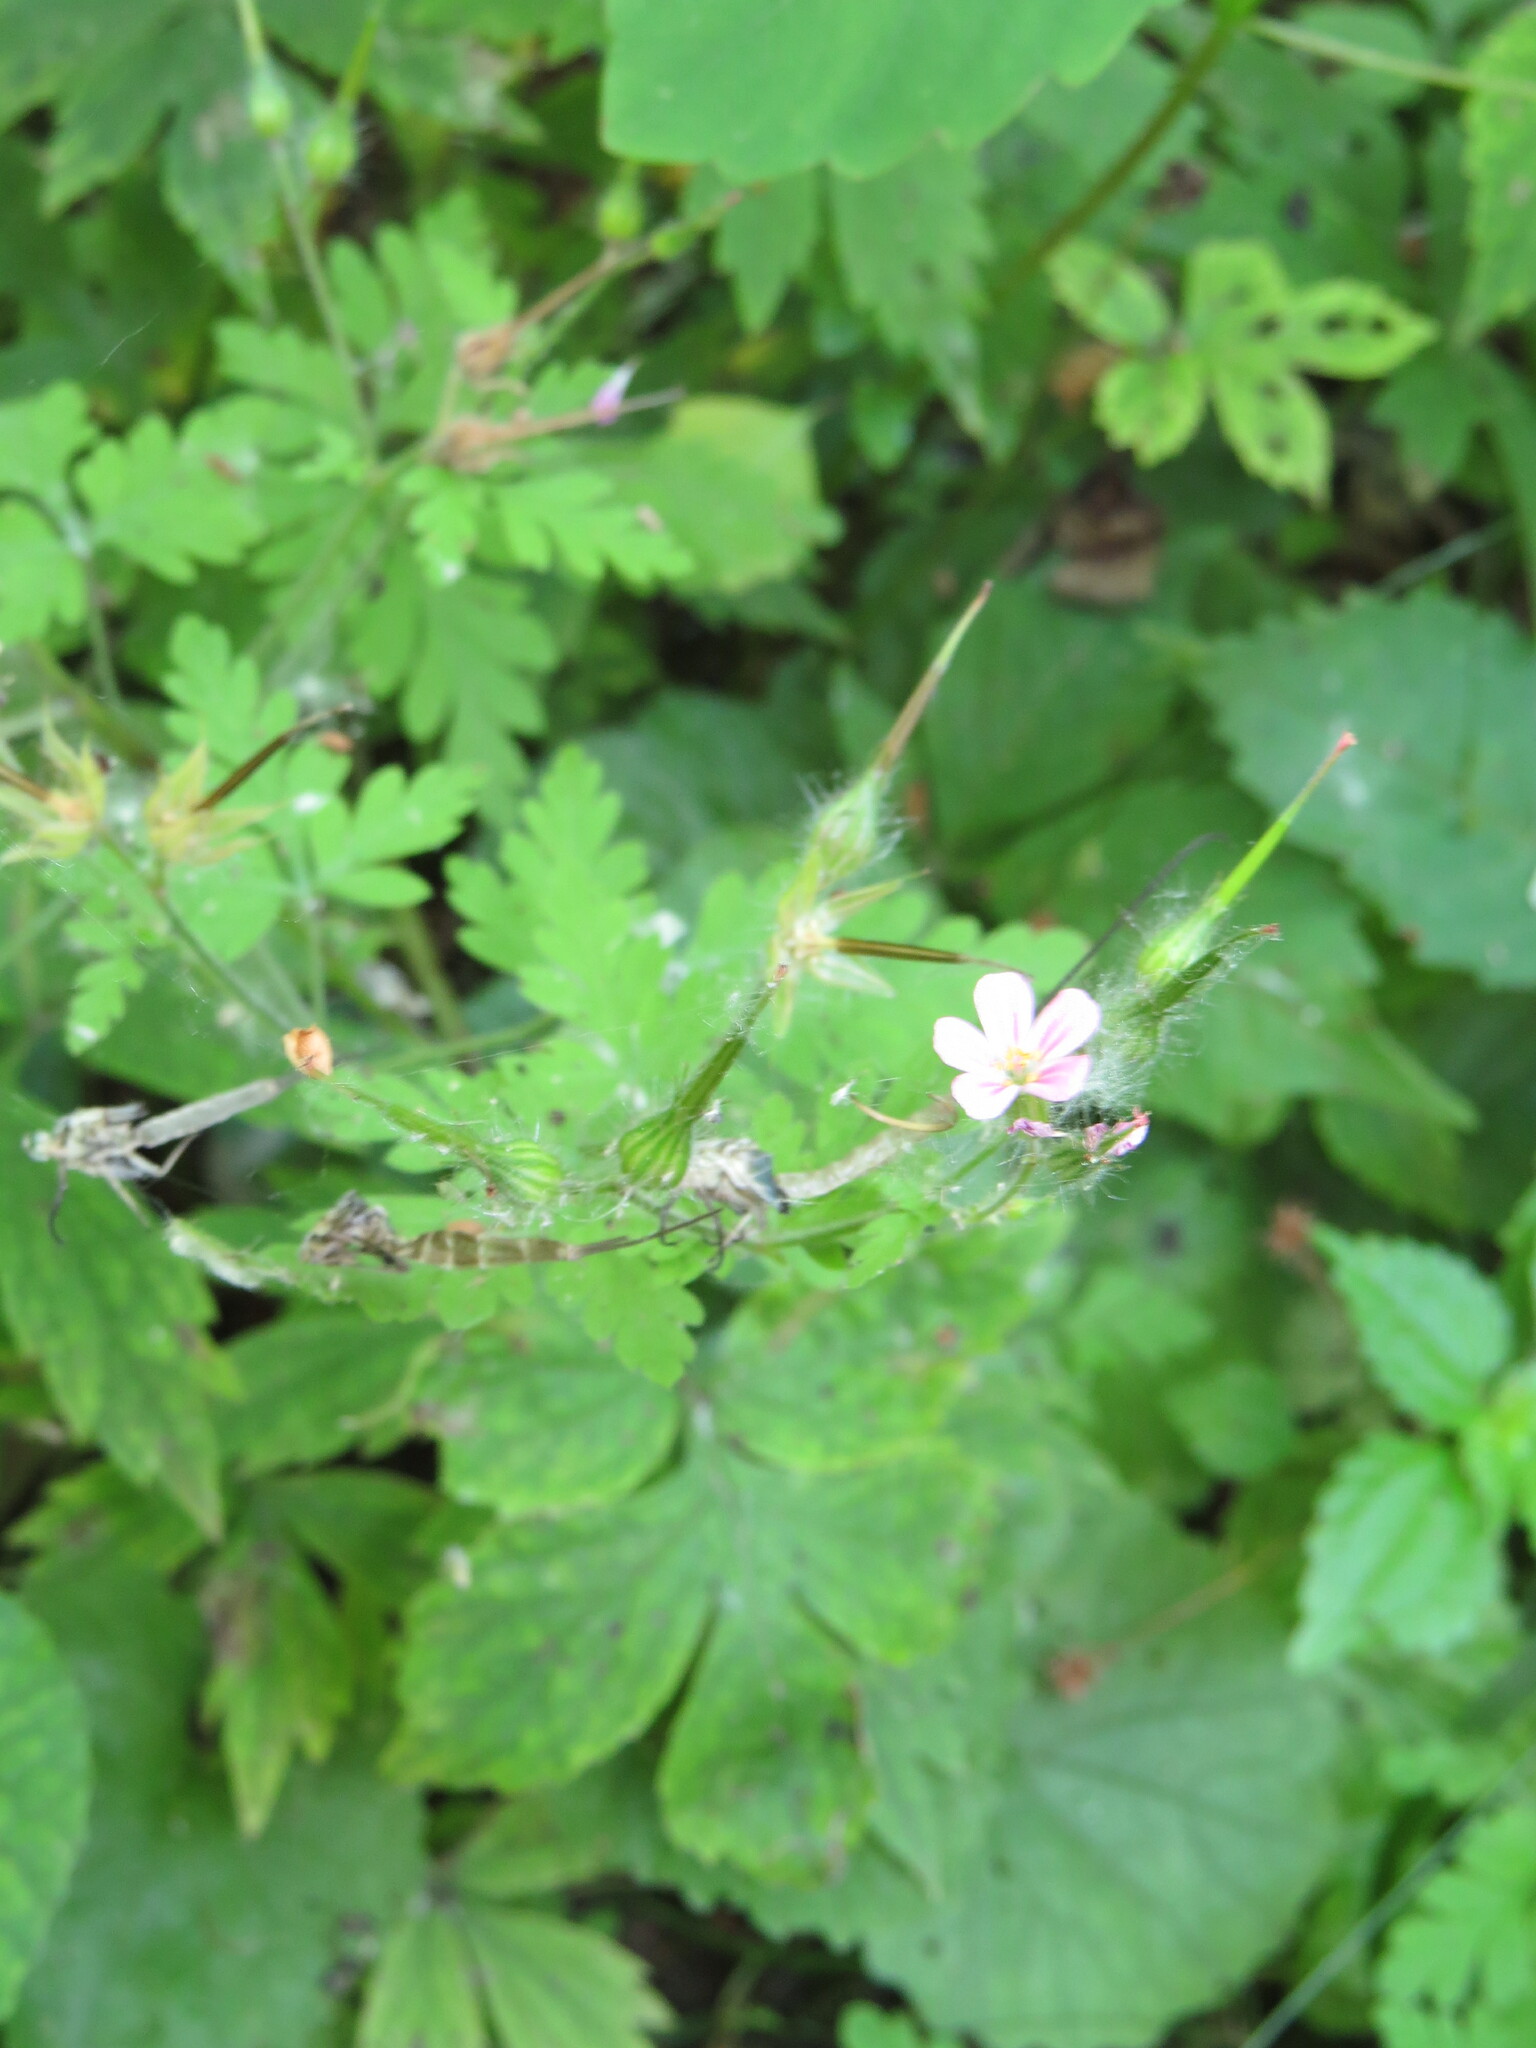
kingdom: Plantae
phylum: Tracheophyta
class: Magnoliopsida
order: Geraniales
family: Geraniaceae
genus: Geranium
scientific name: Geranium robertianum
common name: Herb-robert
